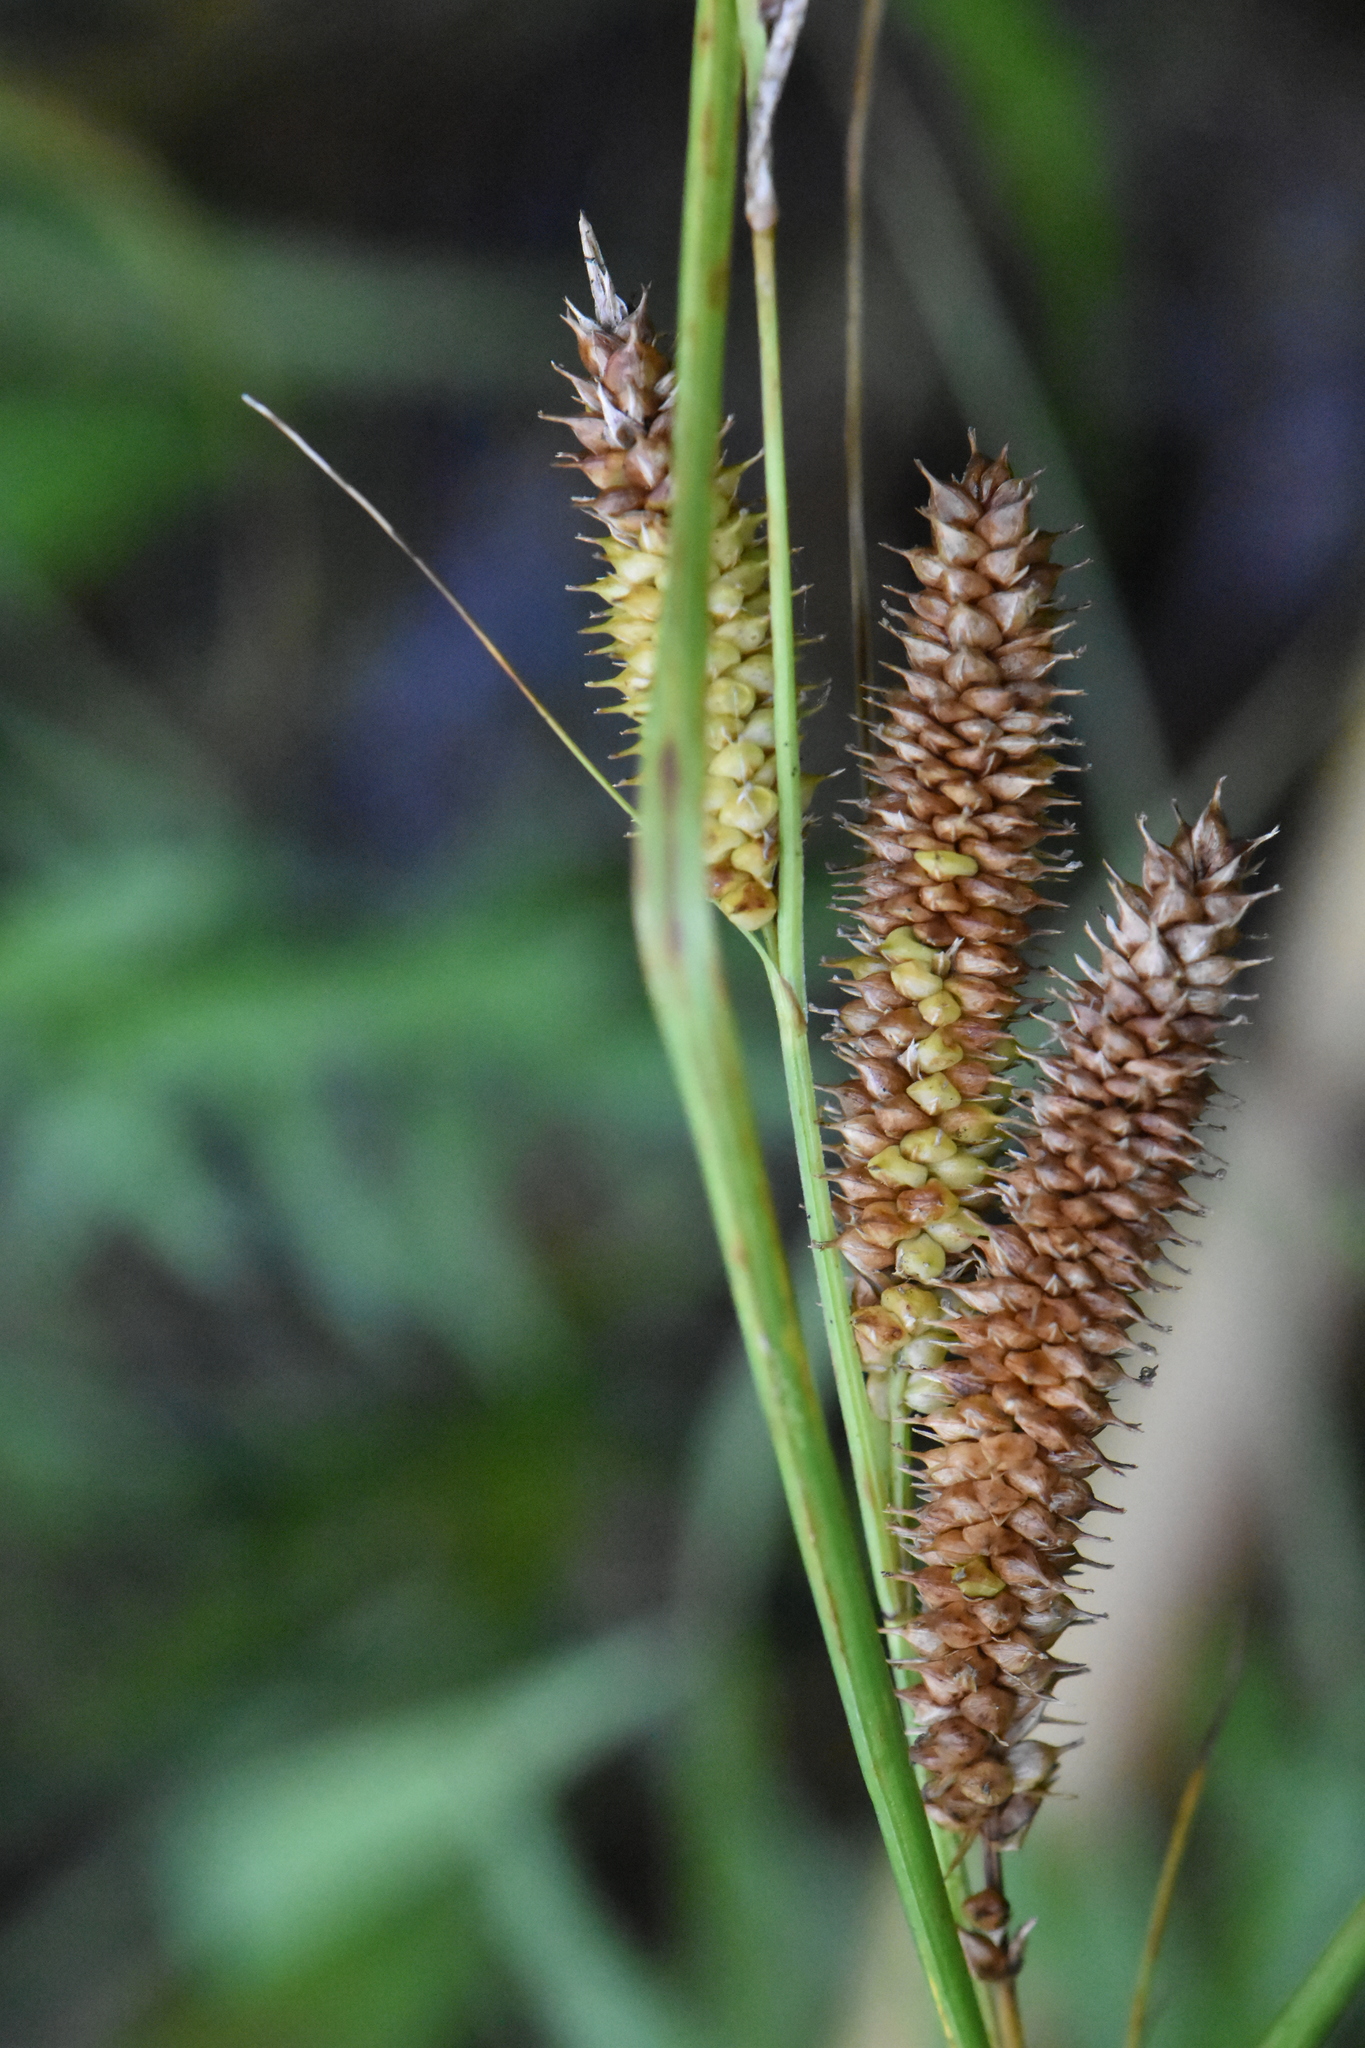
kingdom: Plantae
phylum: Tracheophyta
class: Liliopsida
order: Poales
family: Cyperaceae
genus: Carex
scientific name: Carex rostrata
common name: Bottle sedge
